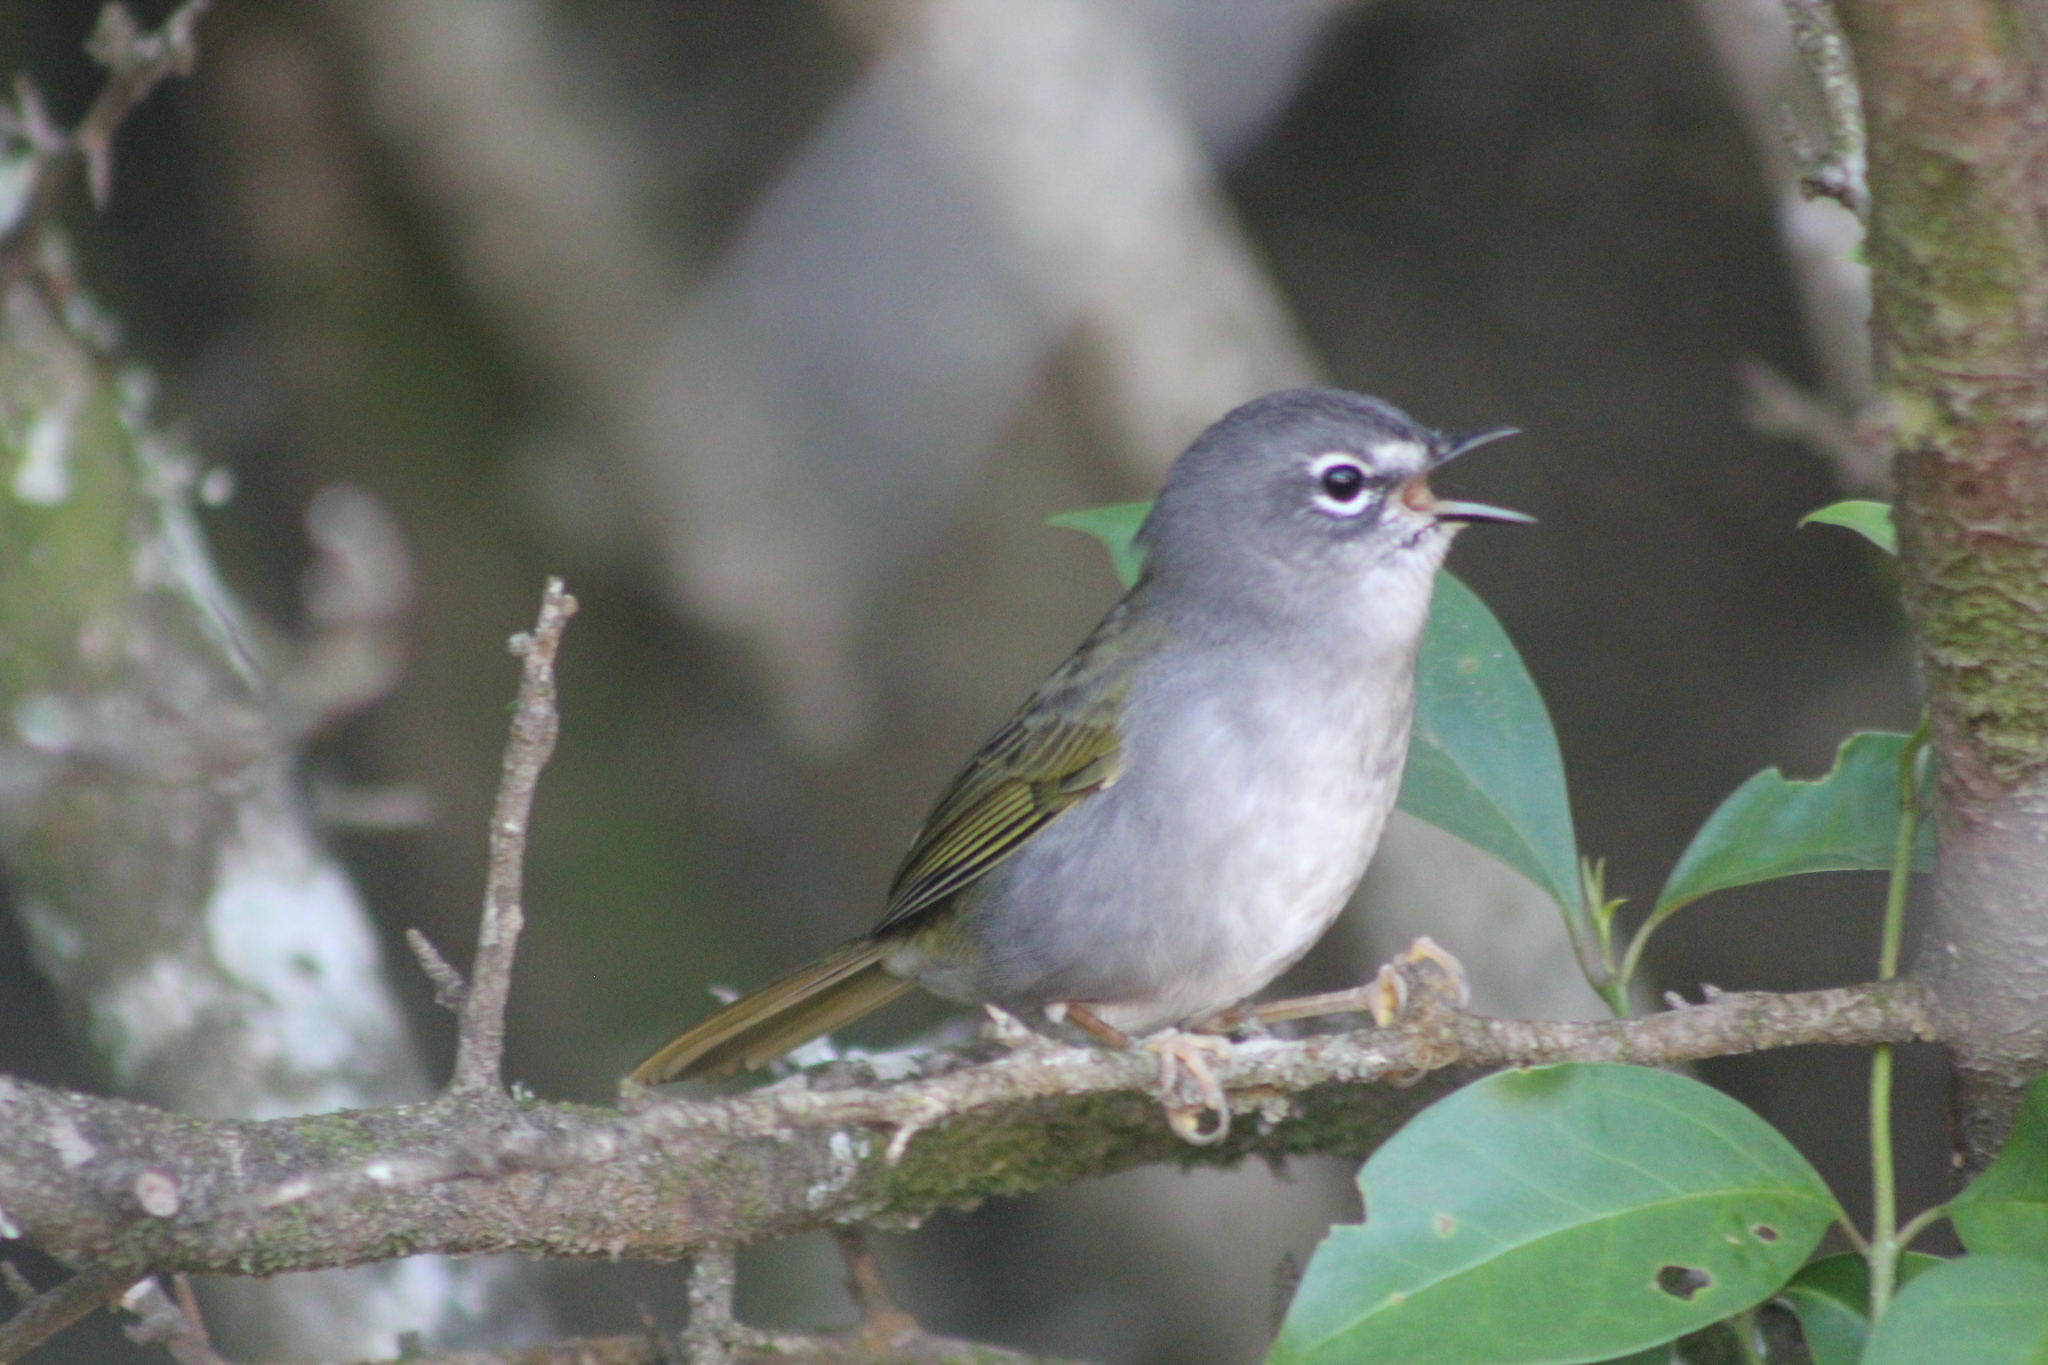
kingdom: Animalia
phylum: Chordata
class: Aves
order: Passeriformes
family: Parulidae
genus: Myiothlypis
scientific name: Myiothlypis leucoblephara
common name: White-rimmed warbler
